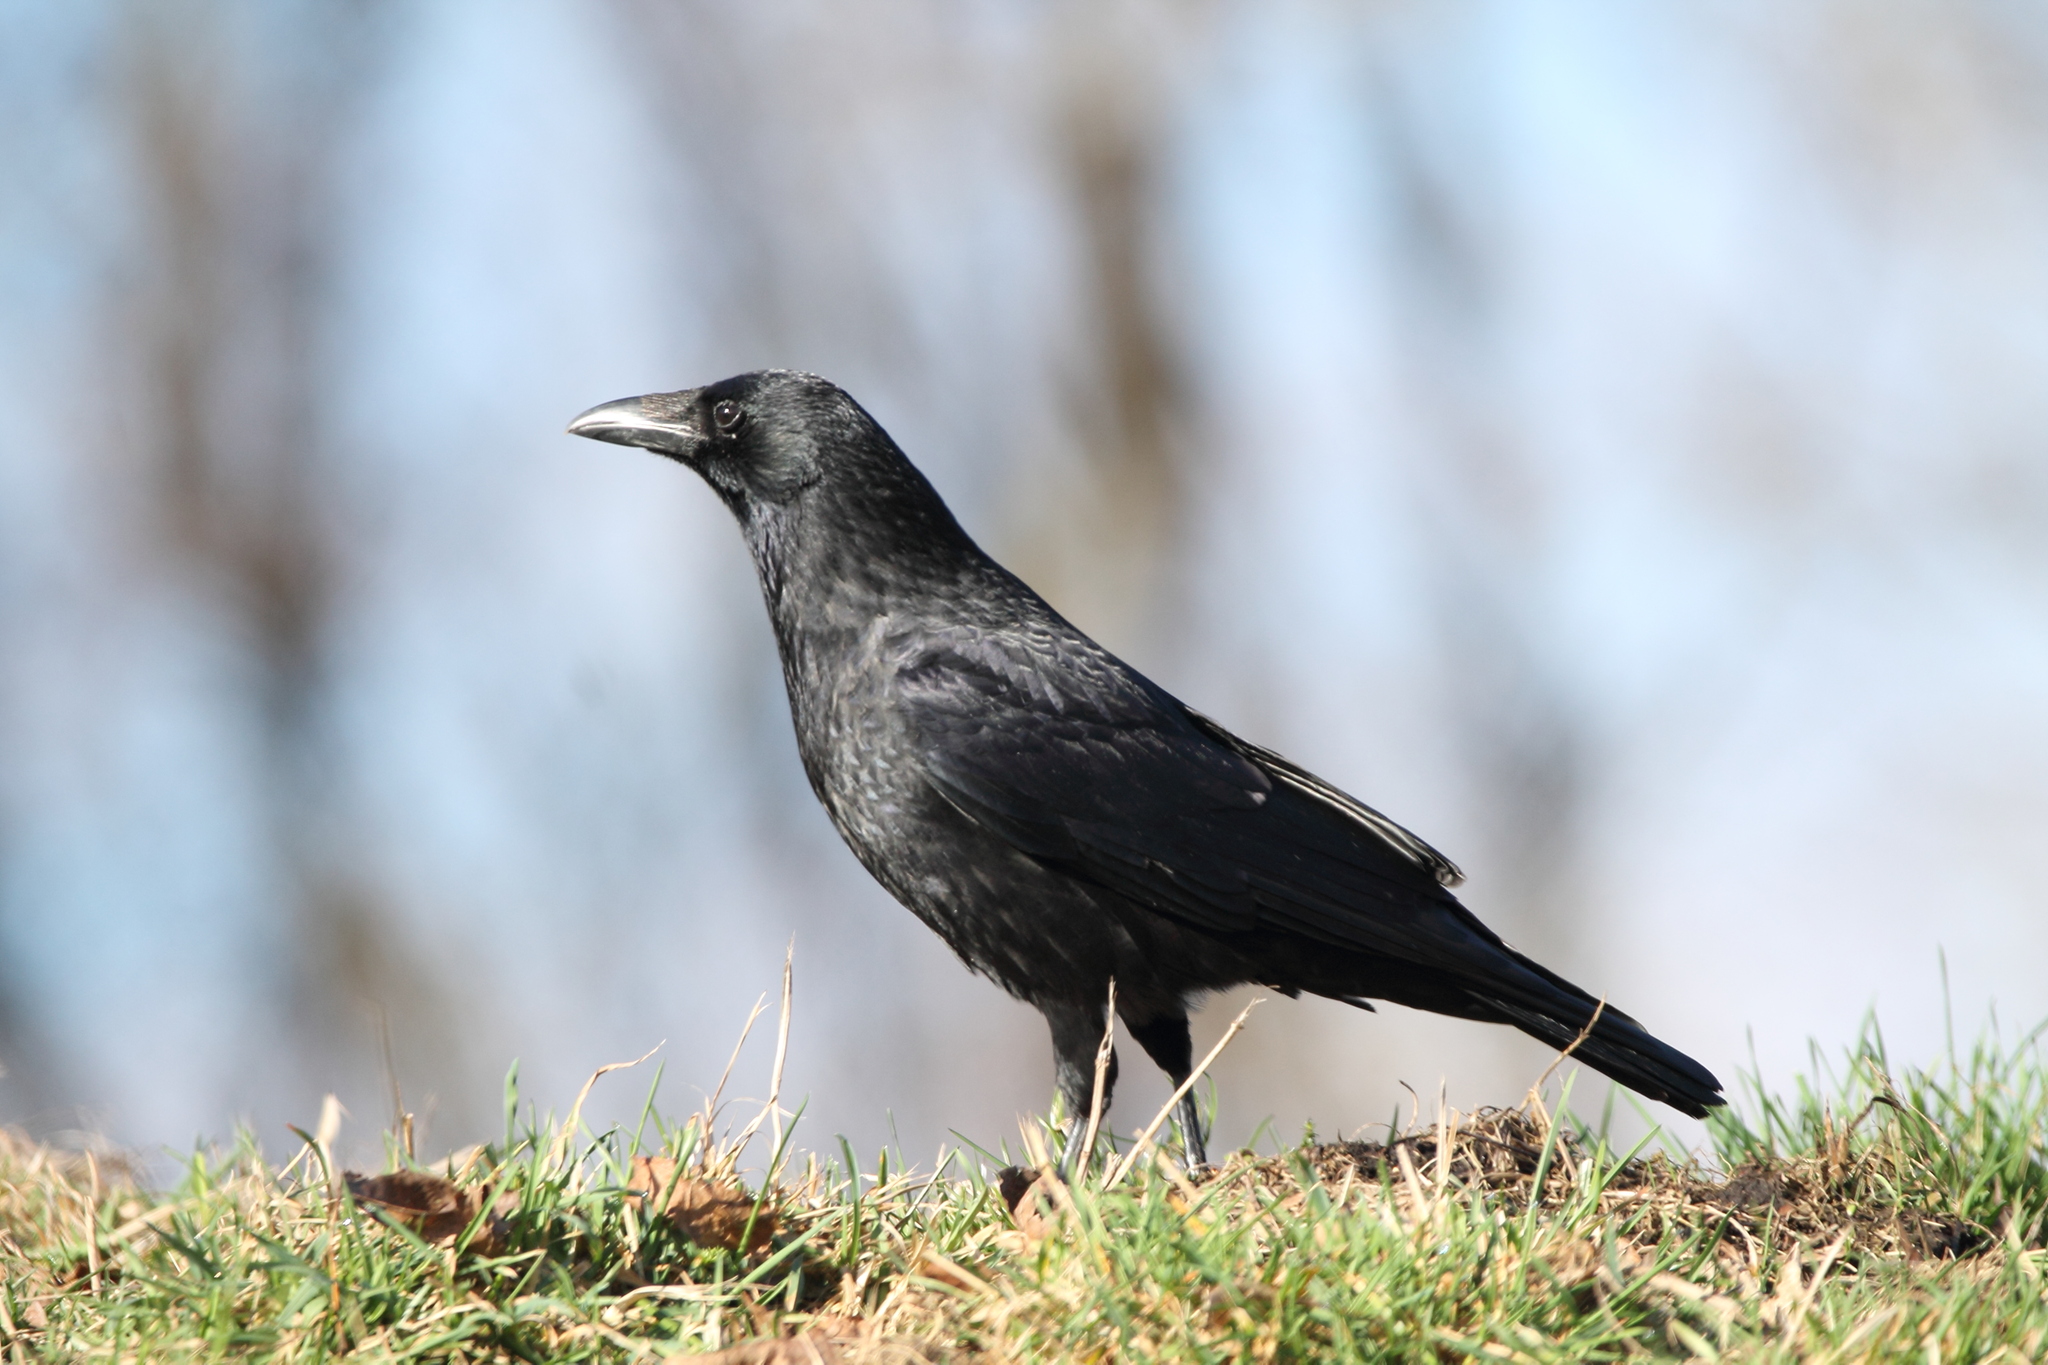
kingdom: Animalia
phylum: Chordata
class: Aves
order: Passeriformes
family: Corvidae
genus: Corvus
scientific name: Corvus corone
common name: Carrion crow
